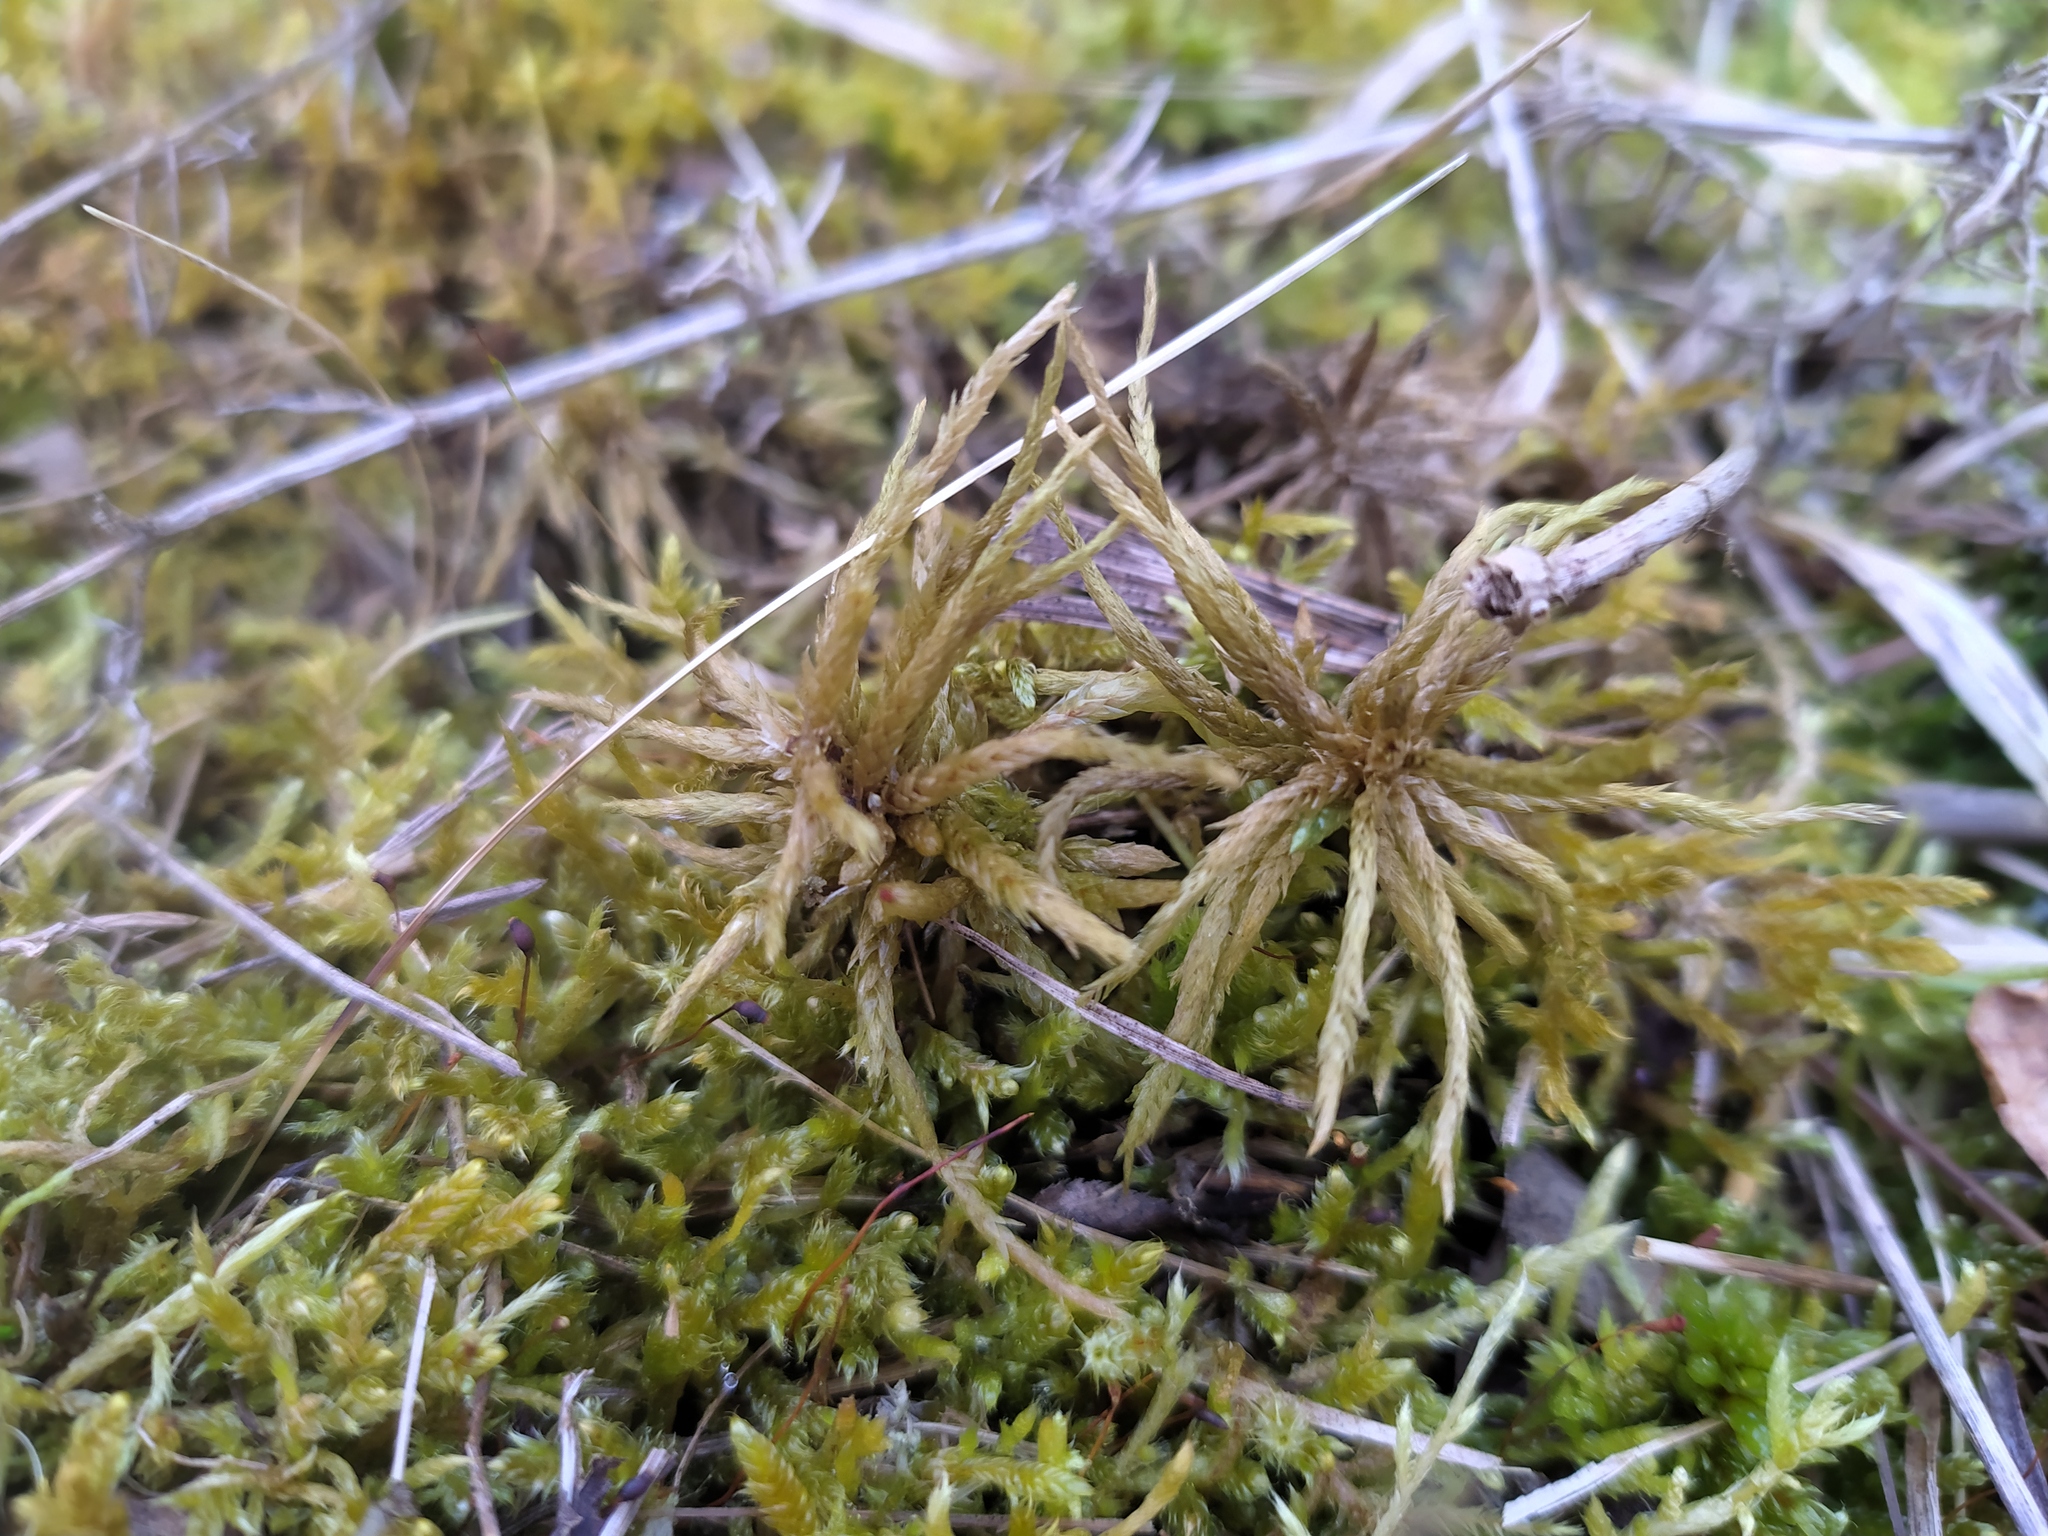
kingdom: Plantae
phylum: Bryophyta
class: Bryopsida
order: Hypnales
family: Climaciaceae
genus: Climacium
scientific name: Climacium dendroides
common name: Northern tree moss
